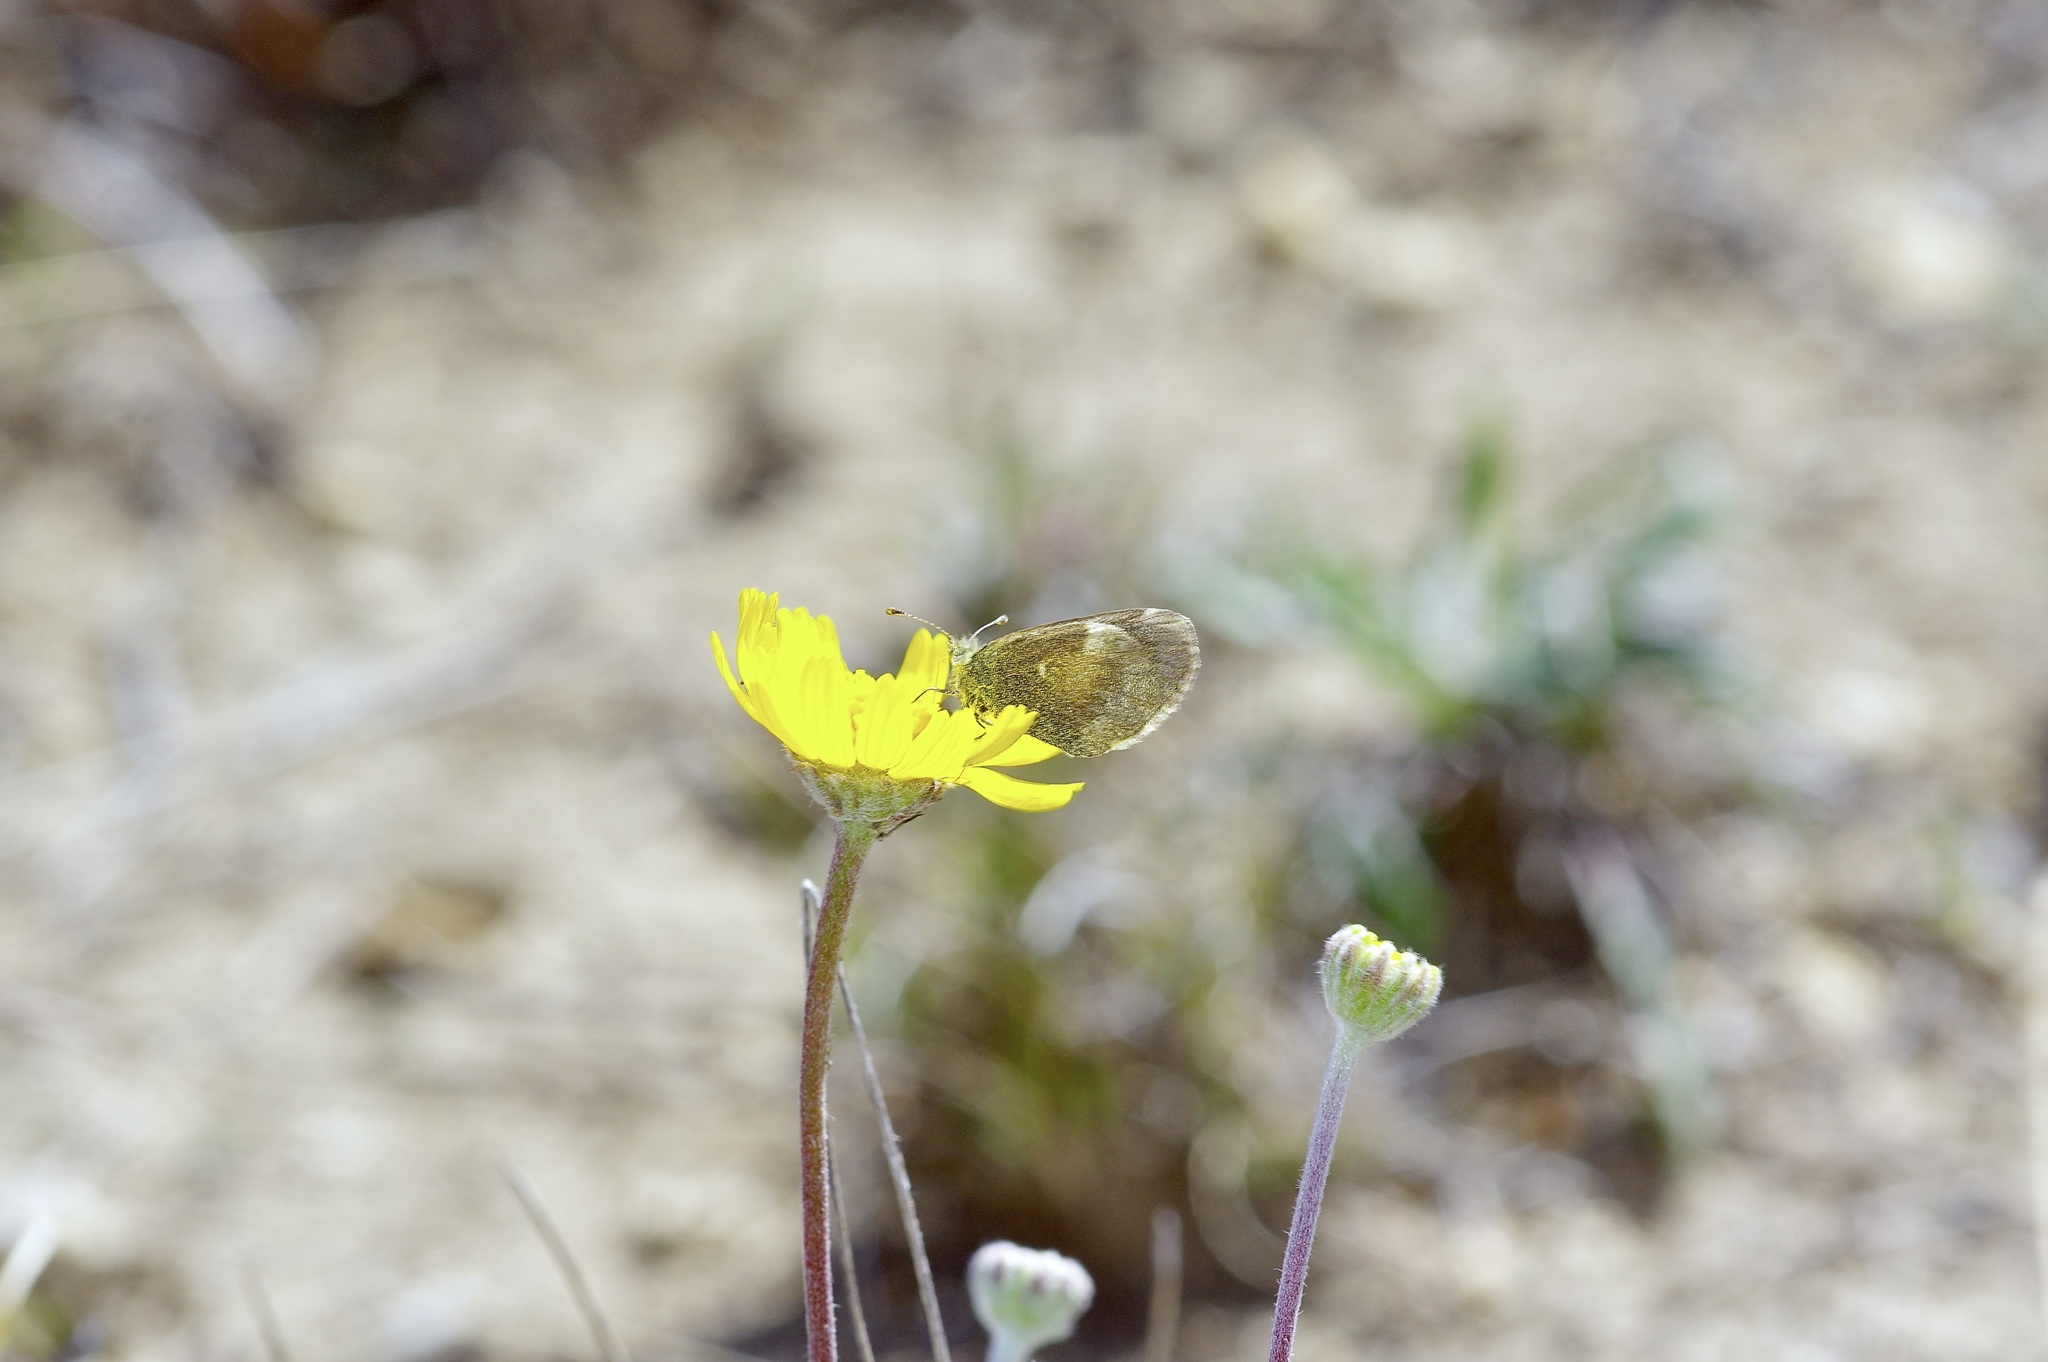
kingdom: Animalia
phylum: Arthropoda
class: Insecta
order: Lepidoptera
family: Pieridae
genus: Nathalis
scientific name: Nathalis iole
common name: Dainty sulphur
